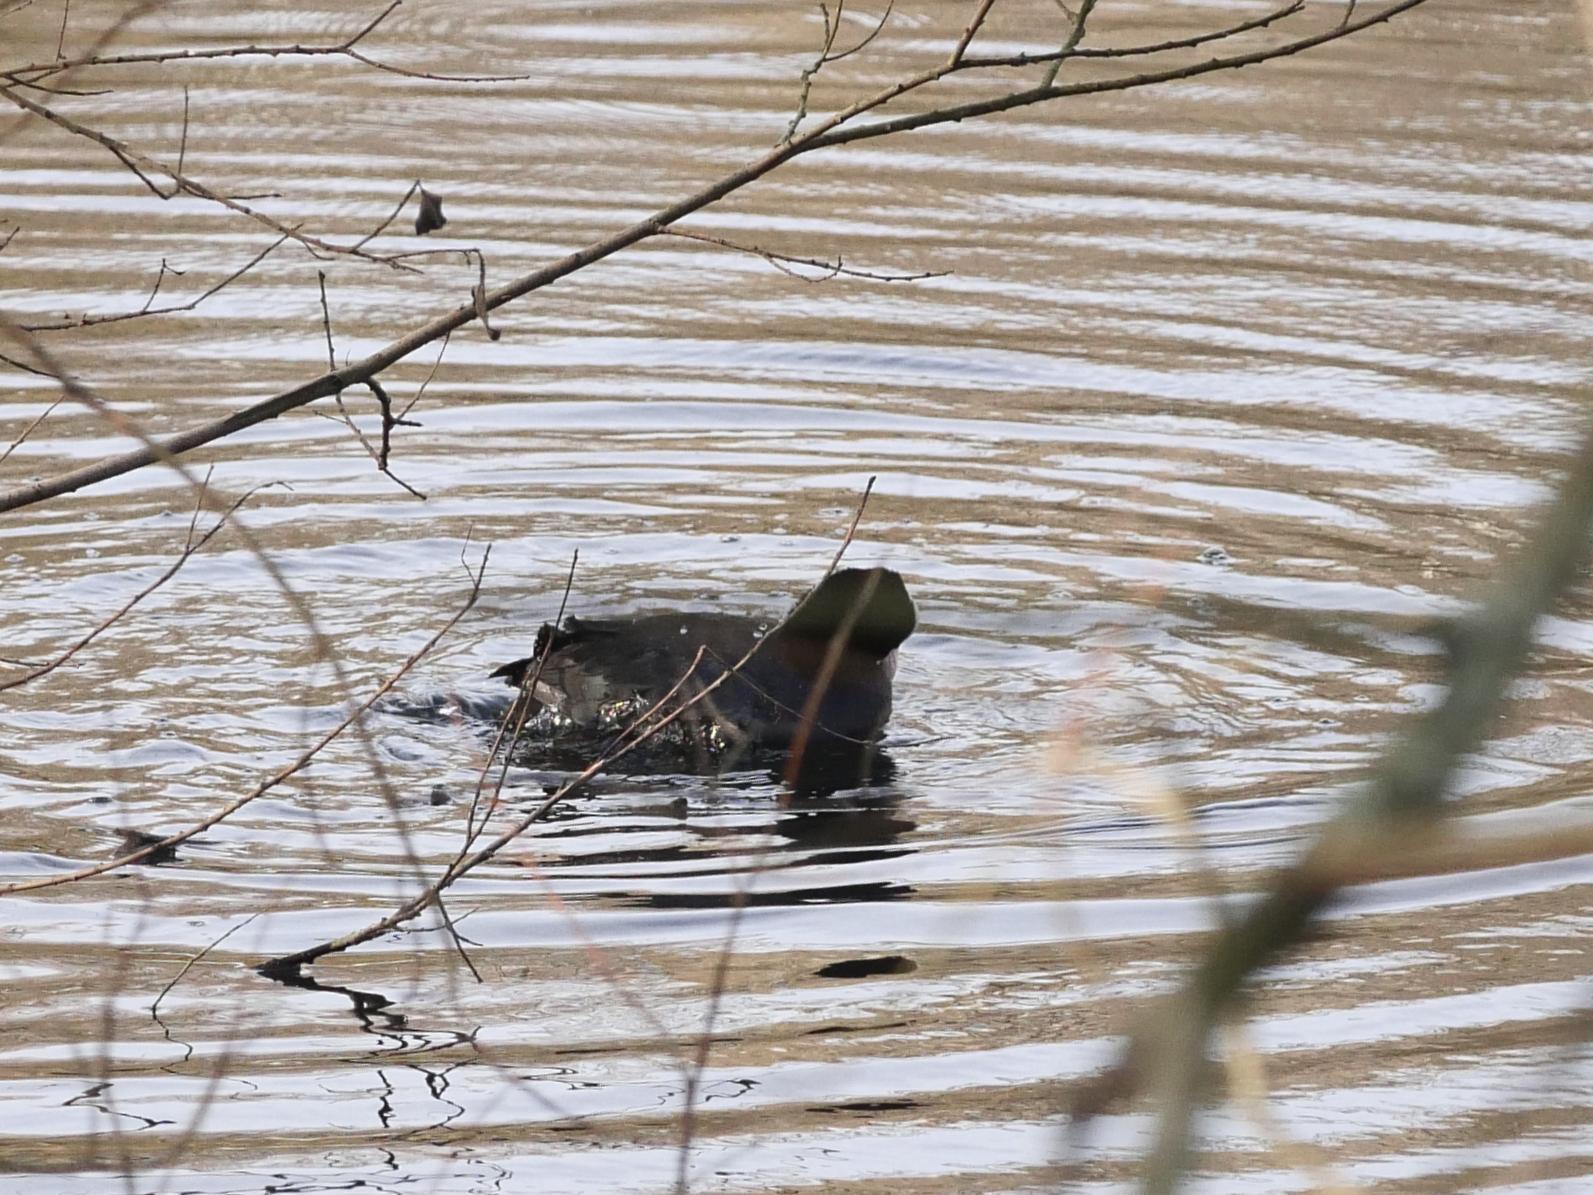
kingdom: Animalia
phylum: Chordata
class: Aves
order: Gruiformes
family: Rallidae
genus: Fulica
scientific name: Fulica atra
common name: Eurasian coot
